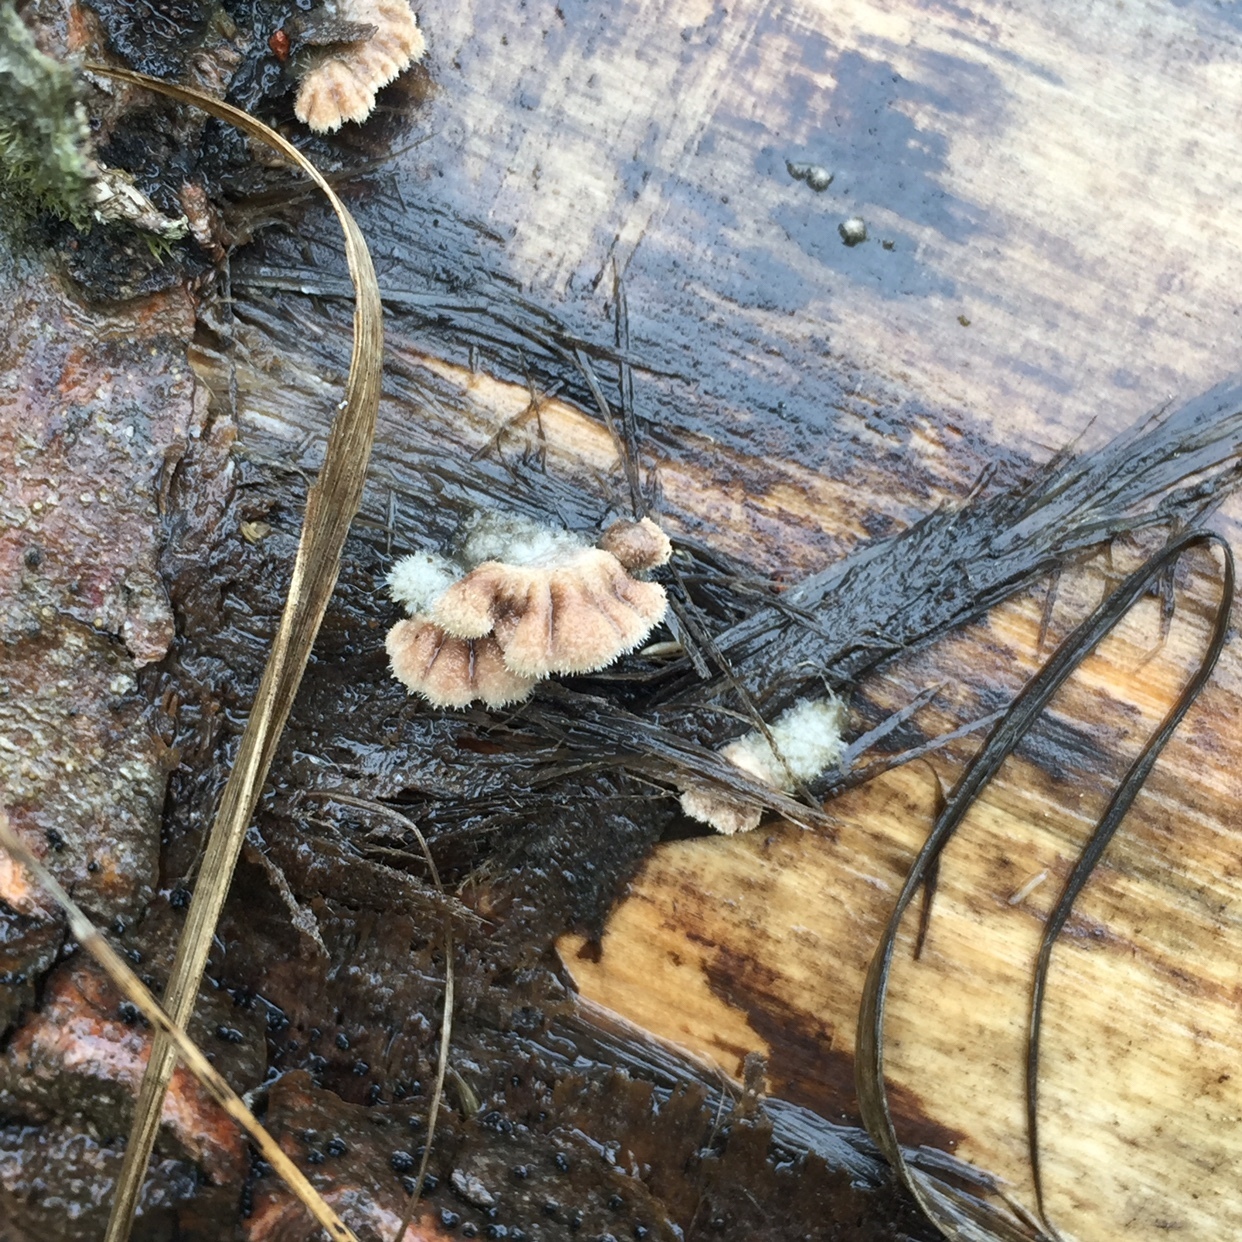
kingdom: Fungi
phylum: Basidiomycota
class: Agaricomycetes
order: Agaricales
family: Schizophyllaceae
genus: Schizophyllum
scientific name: Schizophyllum commune
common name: Common porecrust
